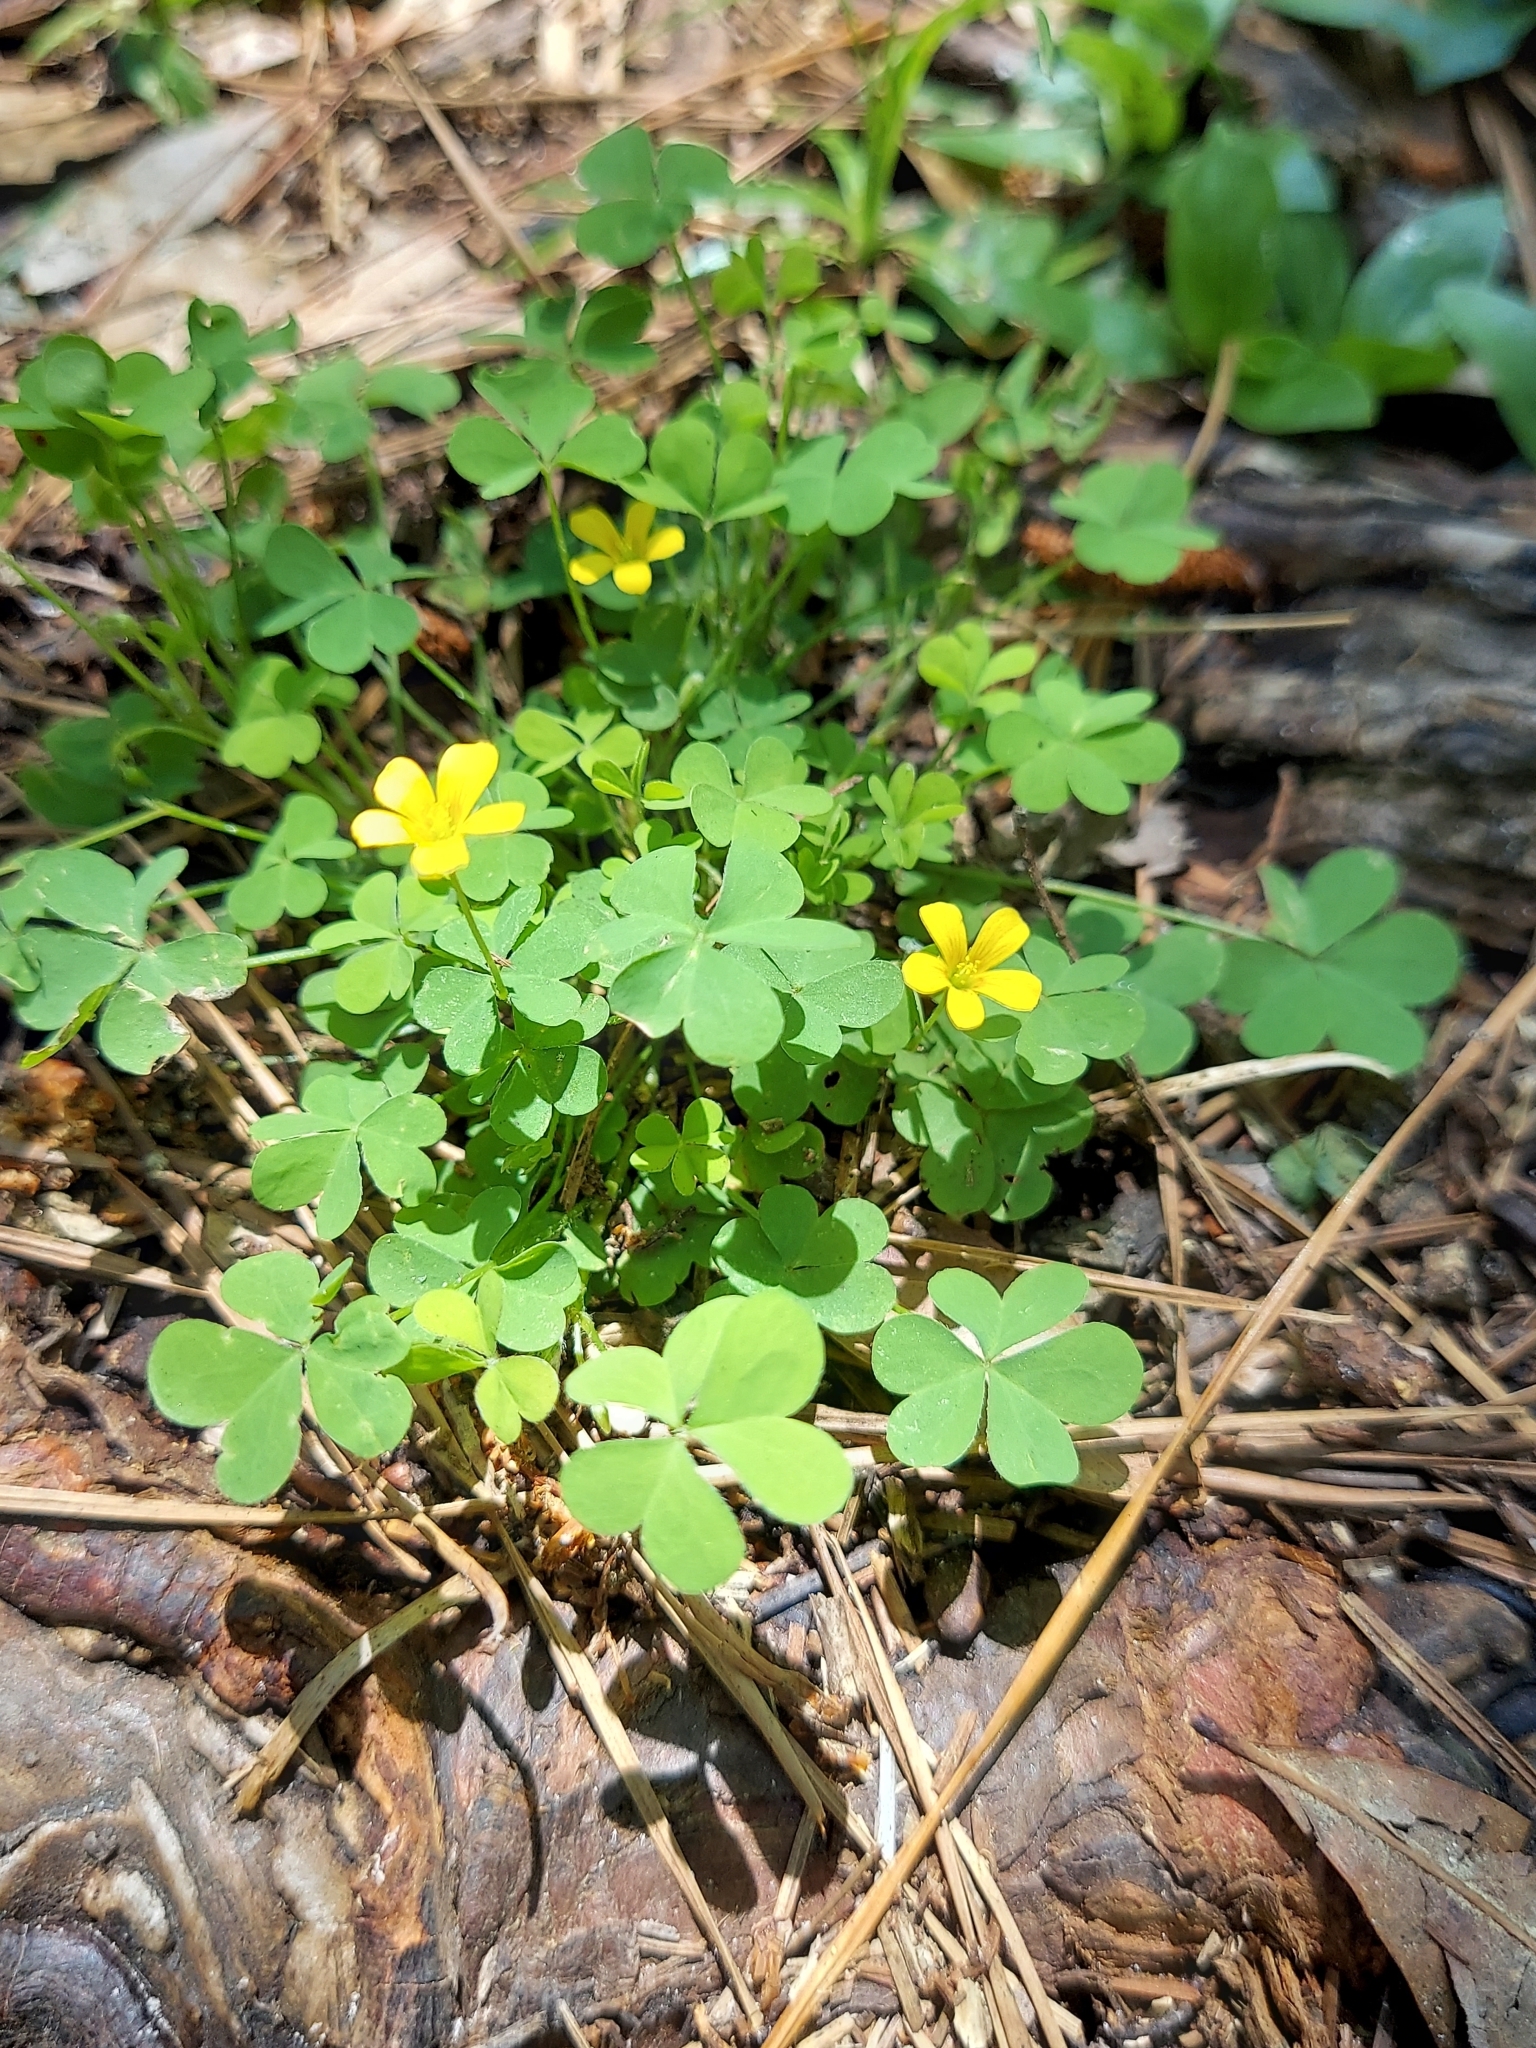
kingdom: Plantae
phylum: Tracheophyta
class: Magnoliopsida
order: Oxalidales
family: Oxalidaceae
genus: Oxalis
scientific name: Oxalis corniculata
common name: Procumbent yellow-sorrel
